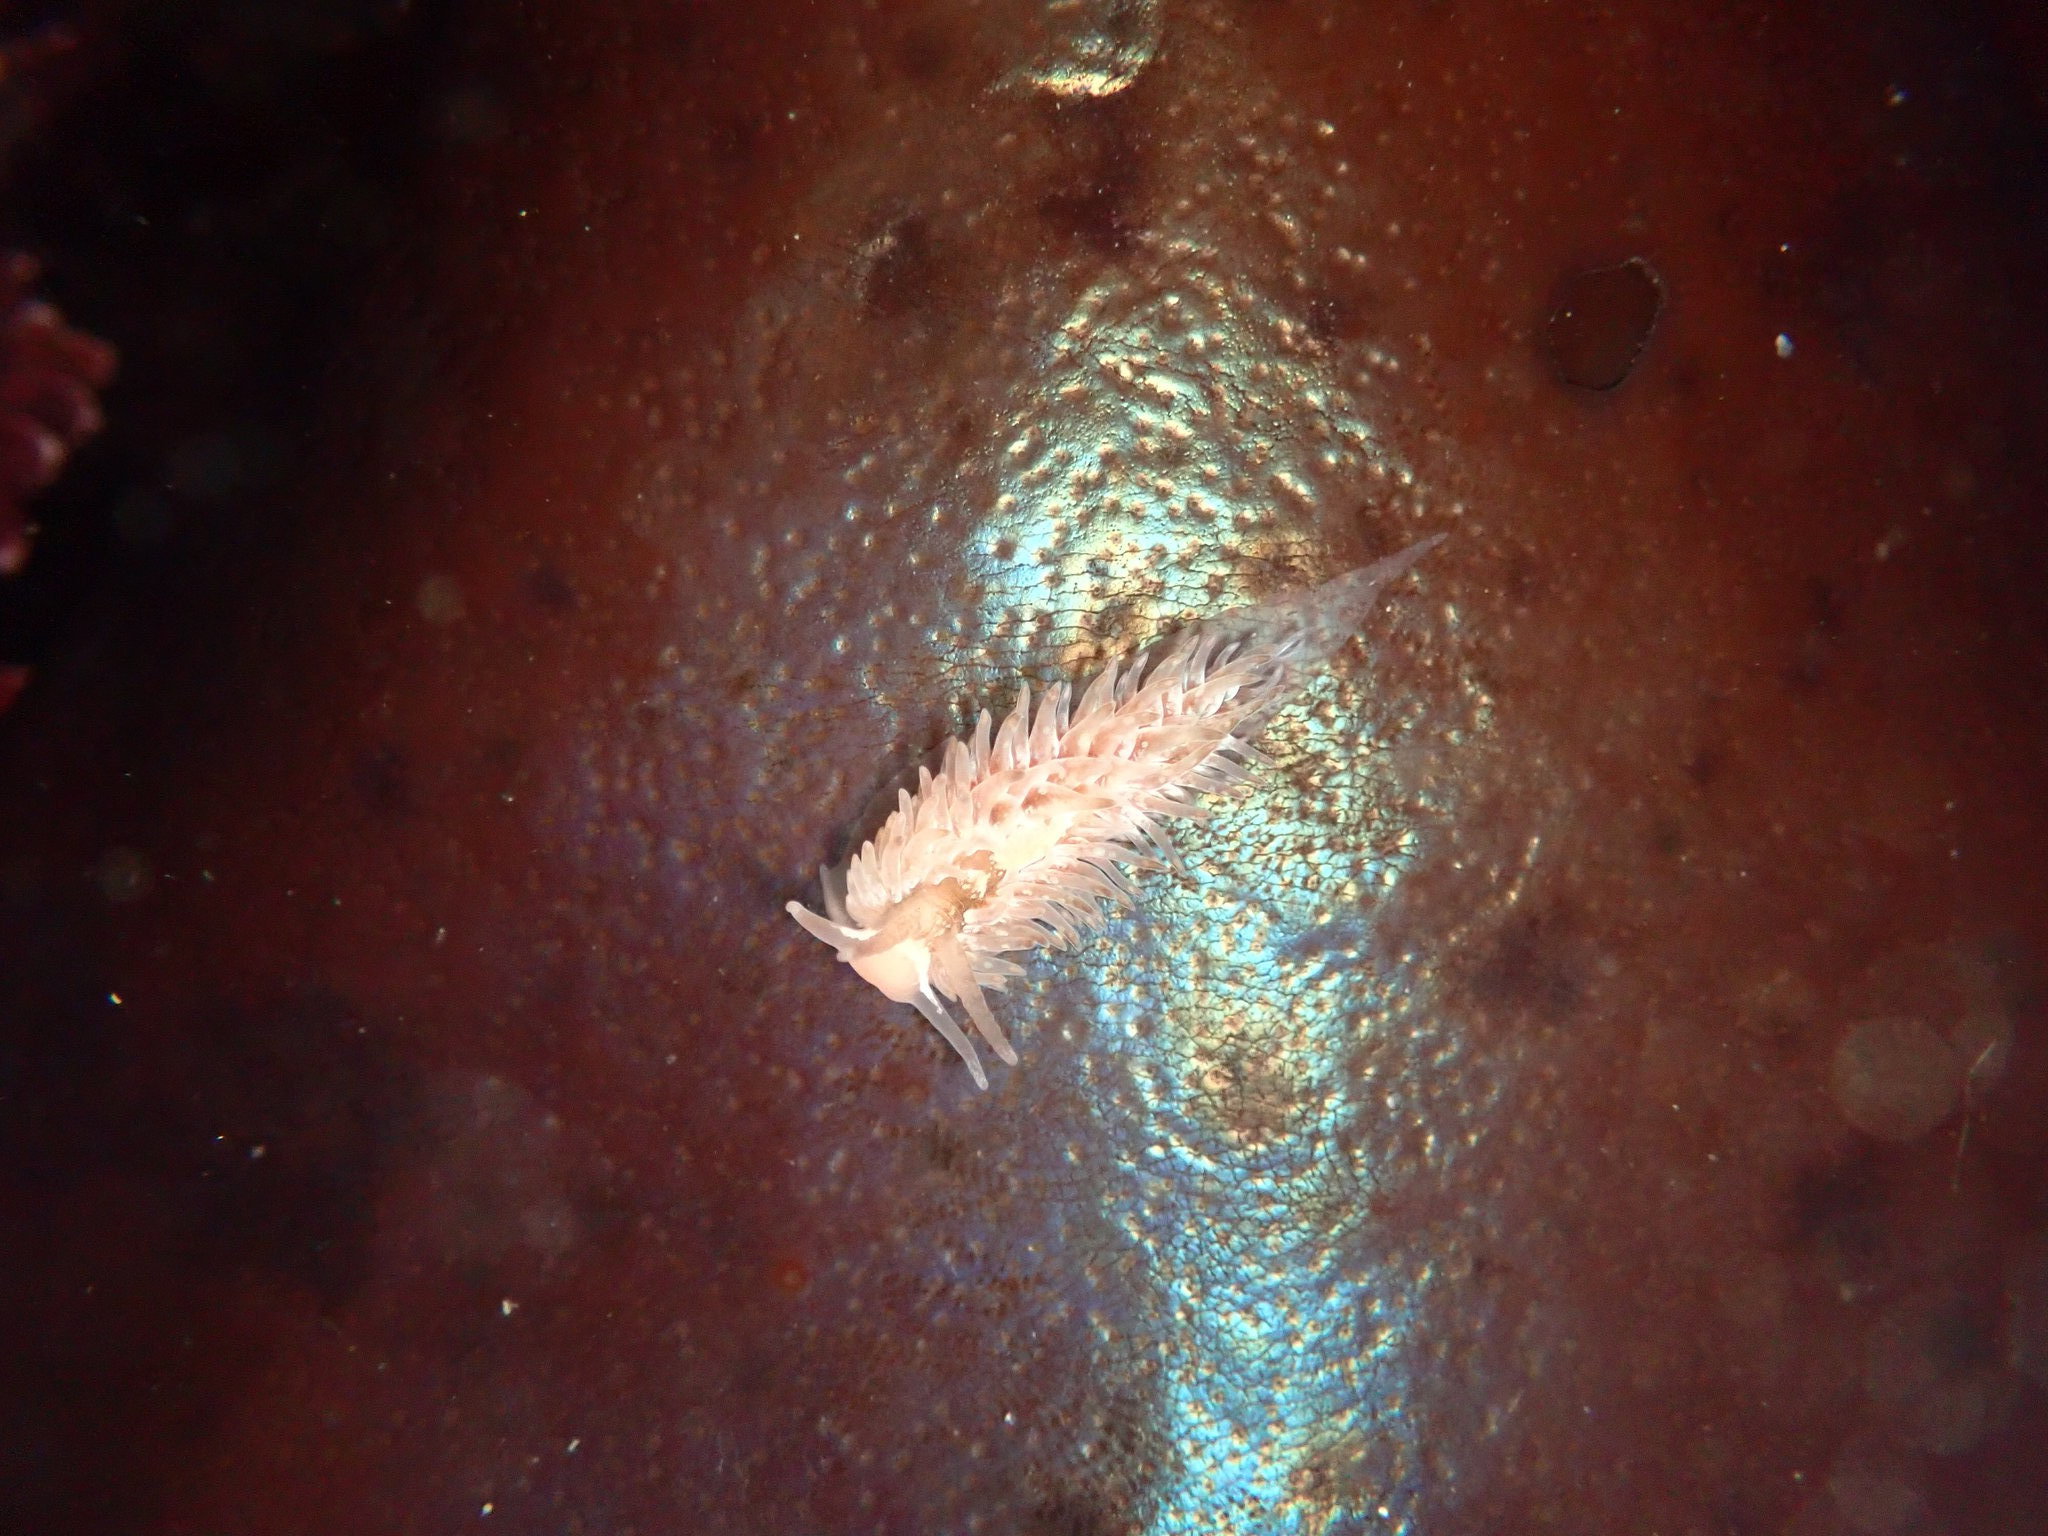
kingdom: Animalia
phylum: Mollusca
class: Gastropoda
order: Nudibranchia
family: Aeolidiidae
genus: Aeolidia
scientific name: Aeolidia loui
